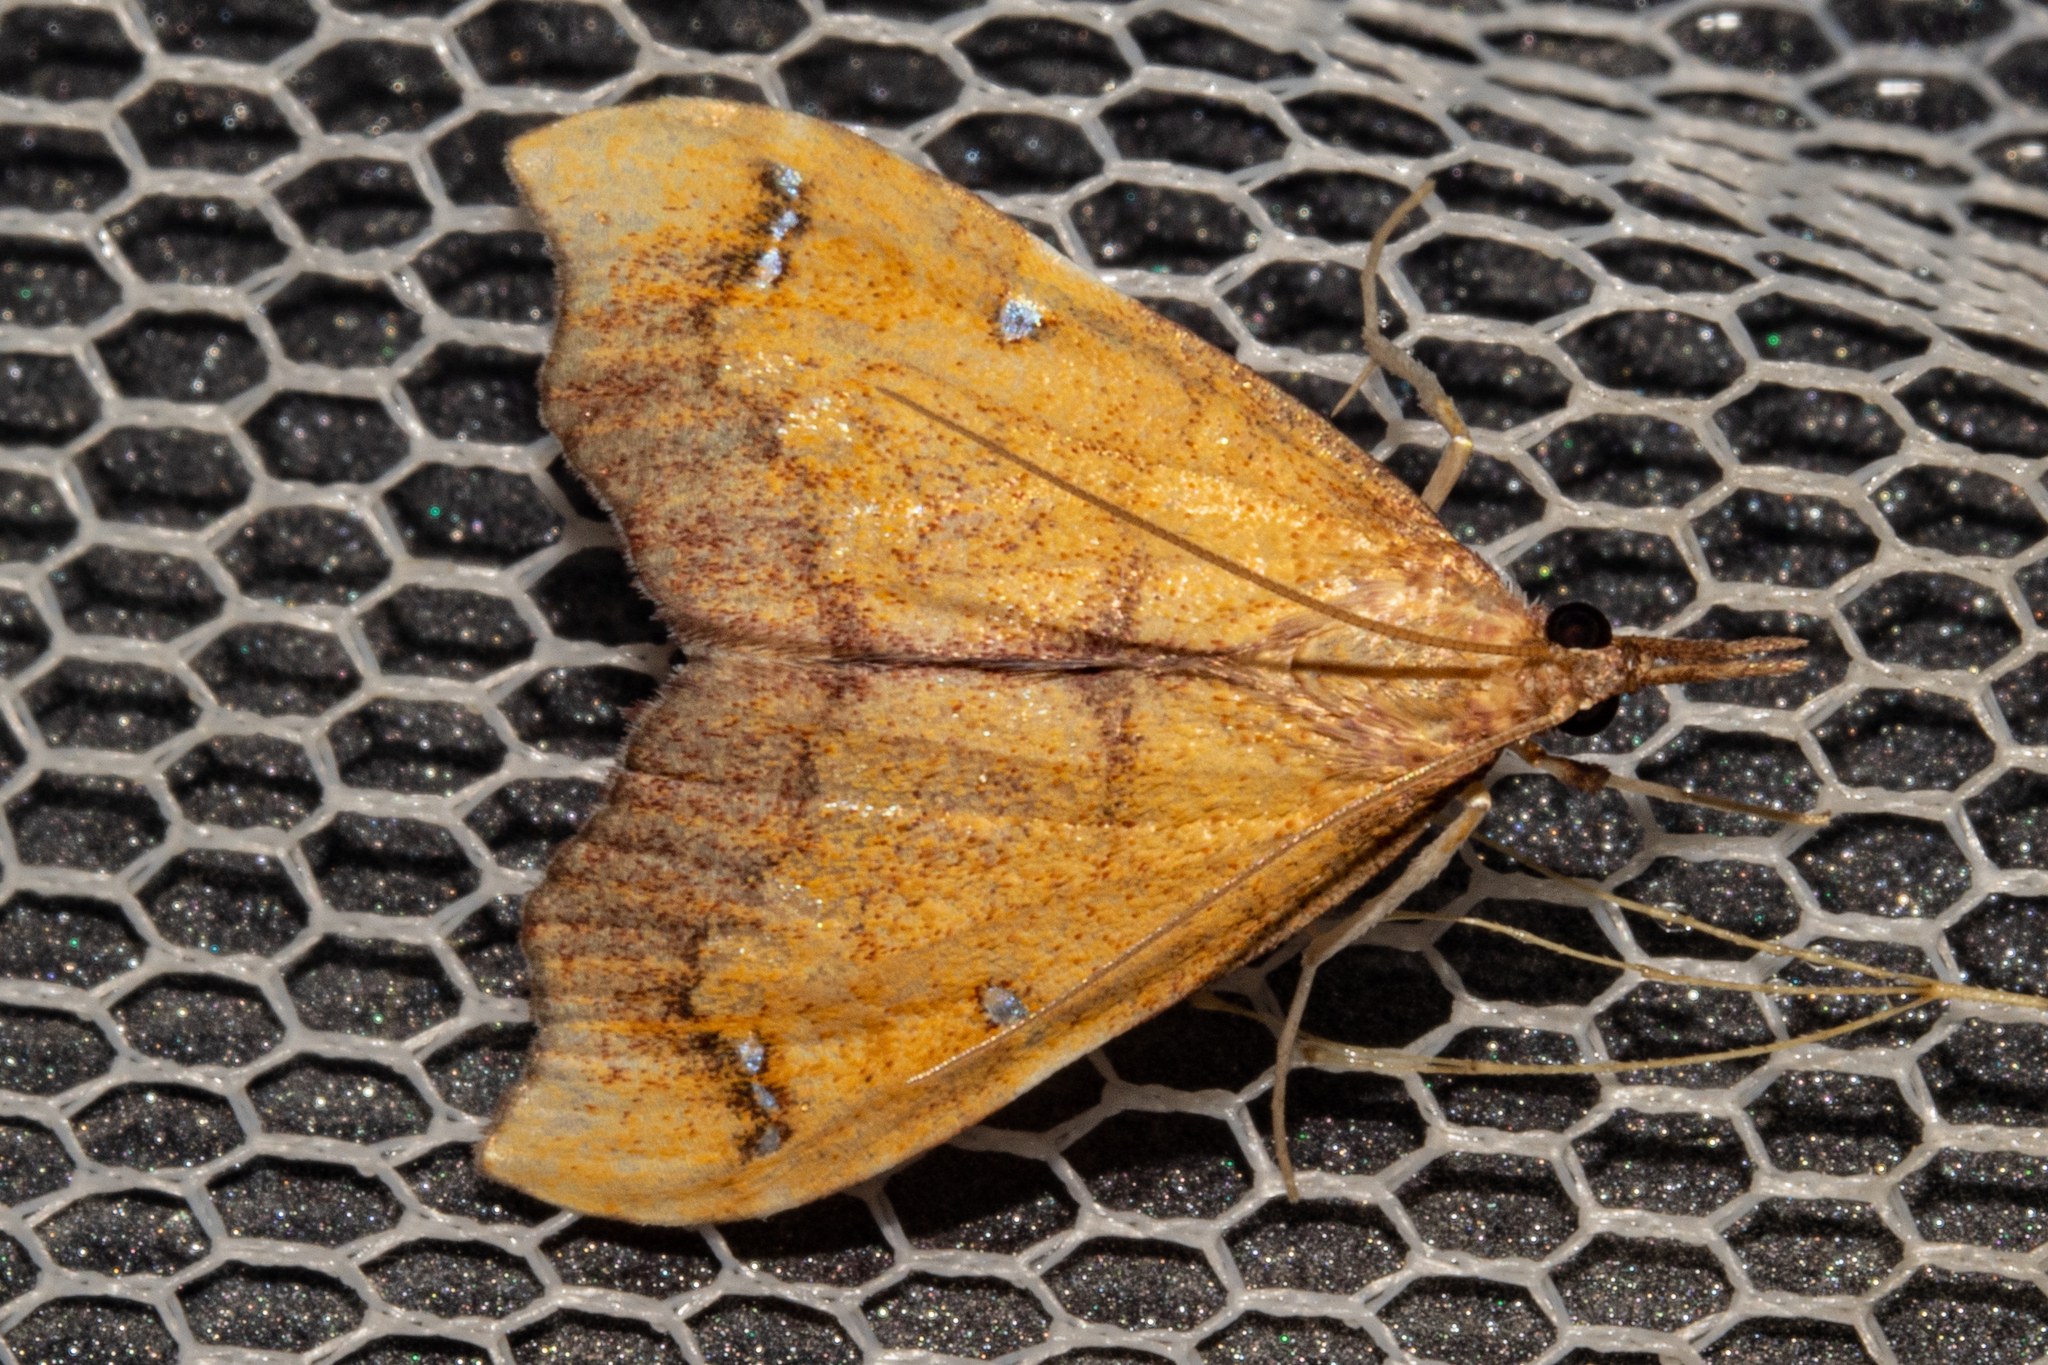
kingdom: Animalia
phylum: Arthropoda
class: Insecta
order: Lepidoptera
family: Crambidae
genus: Deana
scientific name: Deana hybreasalis
